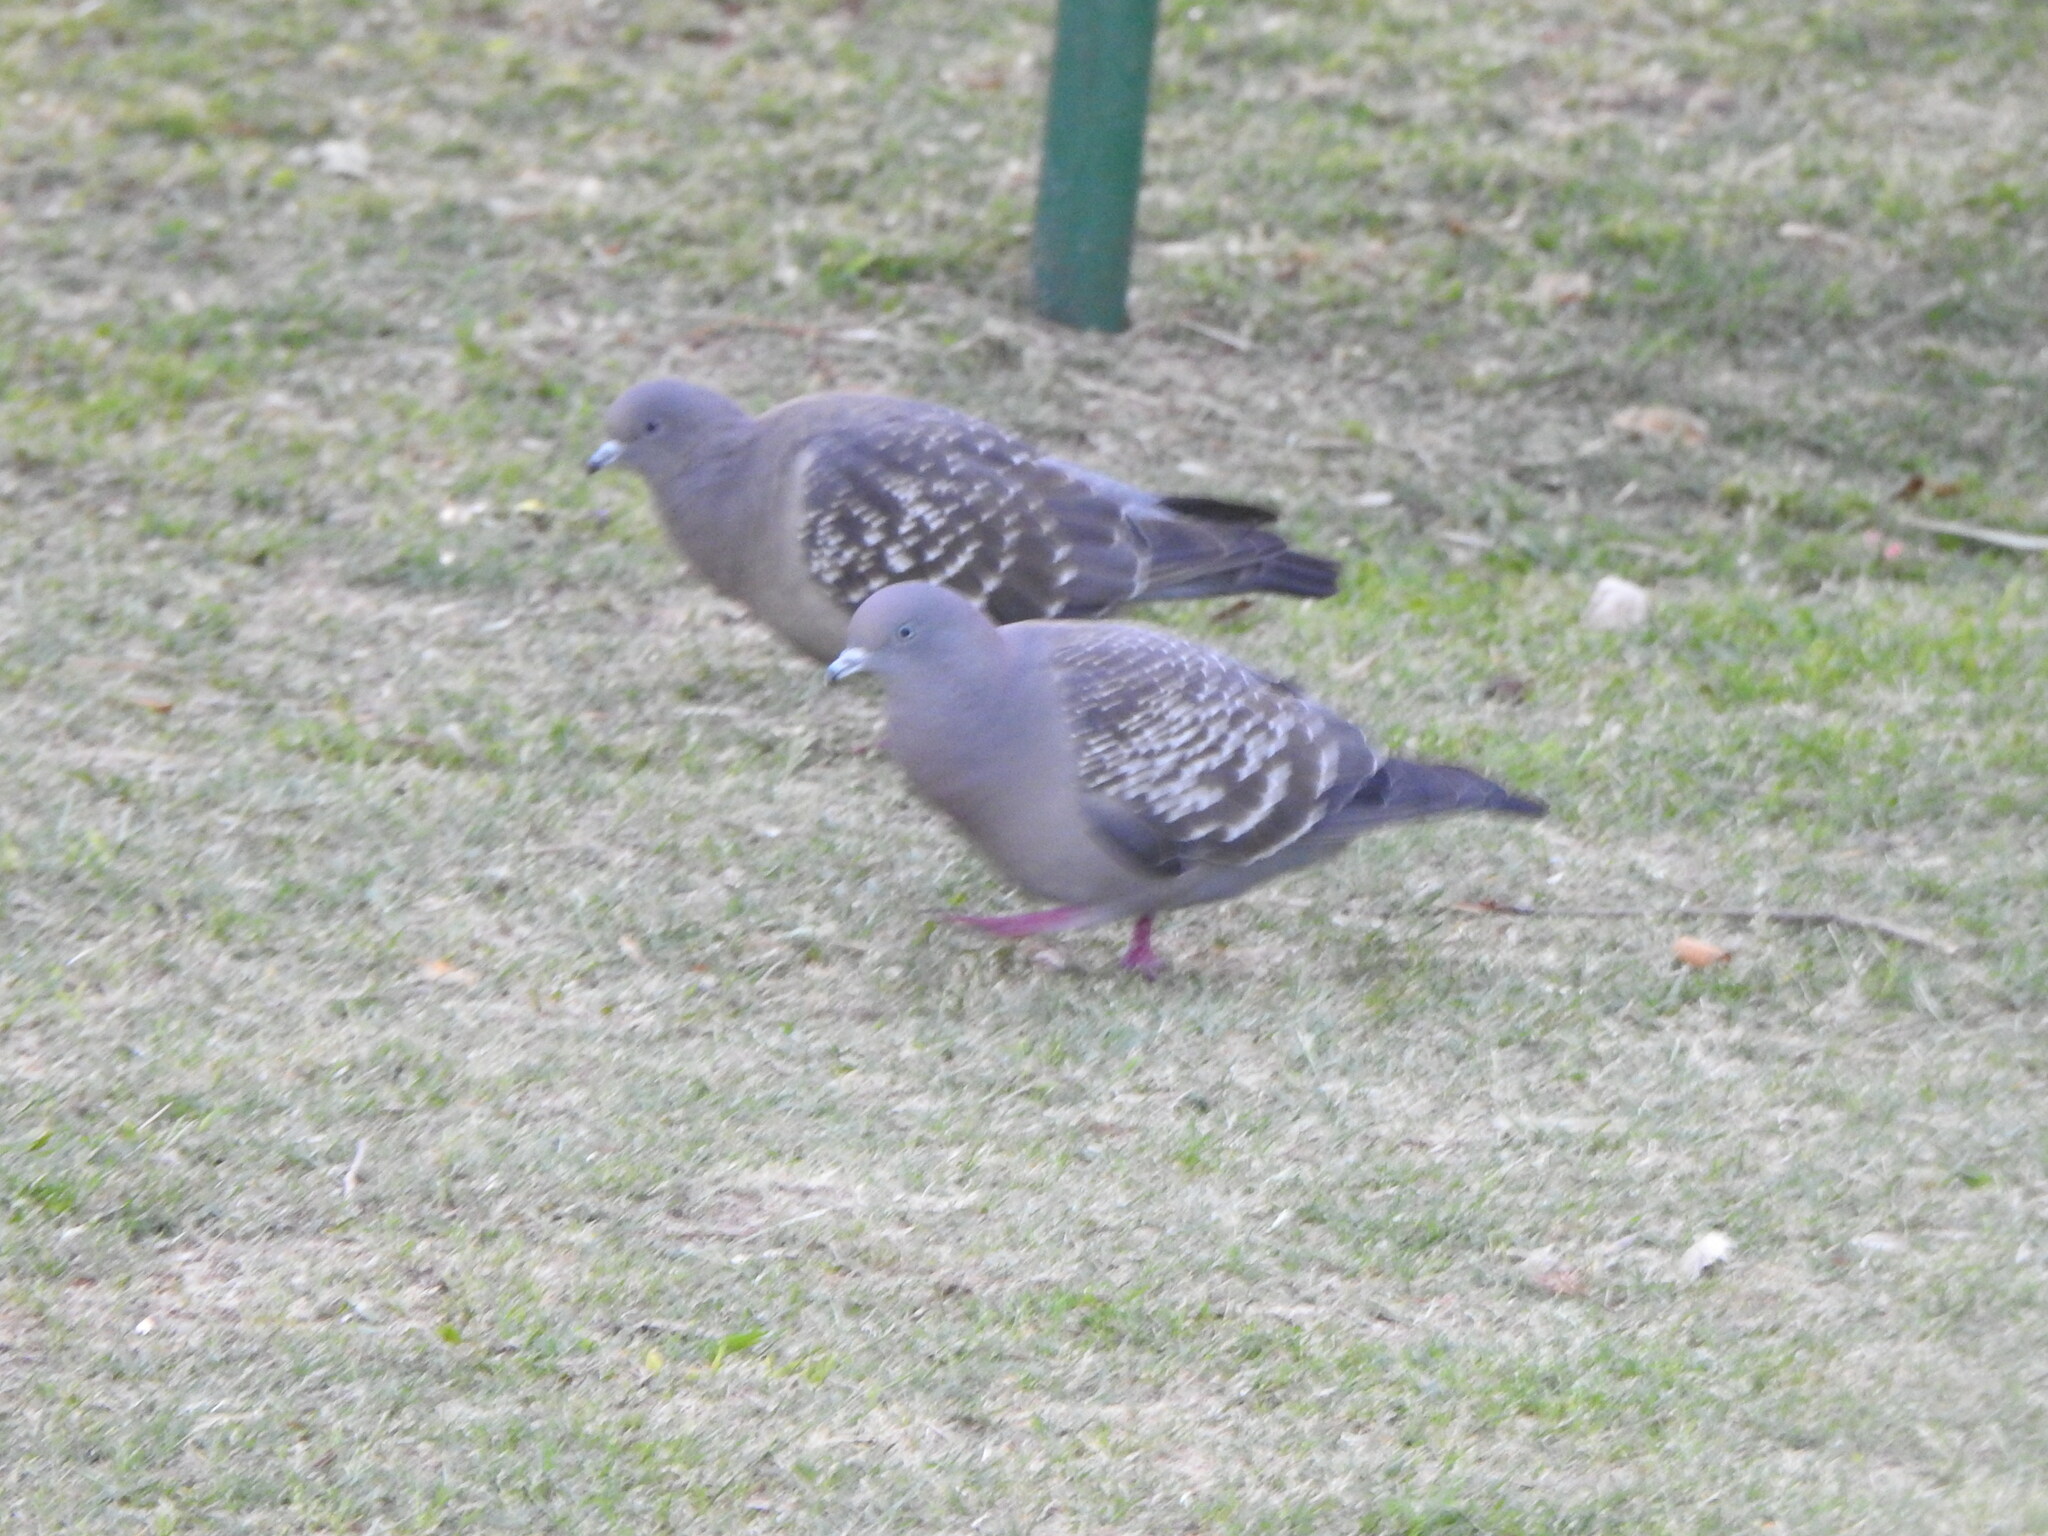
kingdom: Animalia
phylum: Chordata
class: Aves
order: Columbiformes
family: Columbidae
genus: Patagioenas
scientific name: Patagioenas maculosa
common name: Spot-winged pigeon
